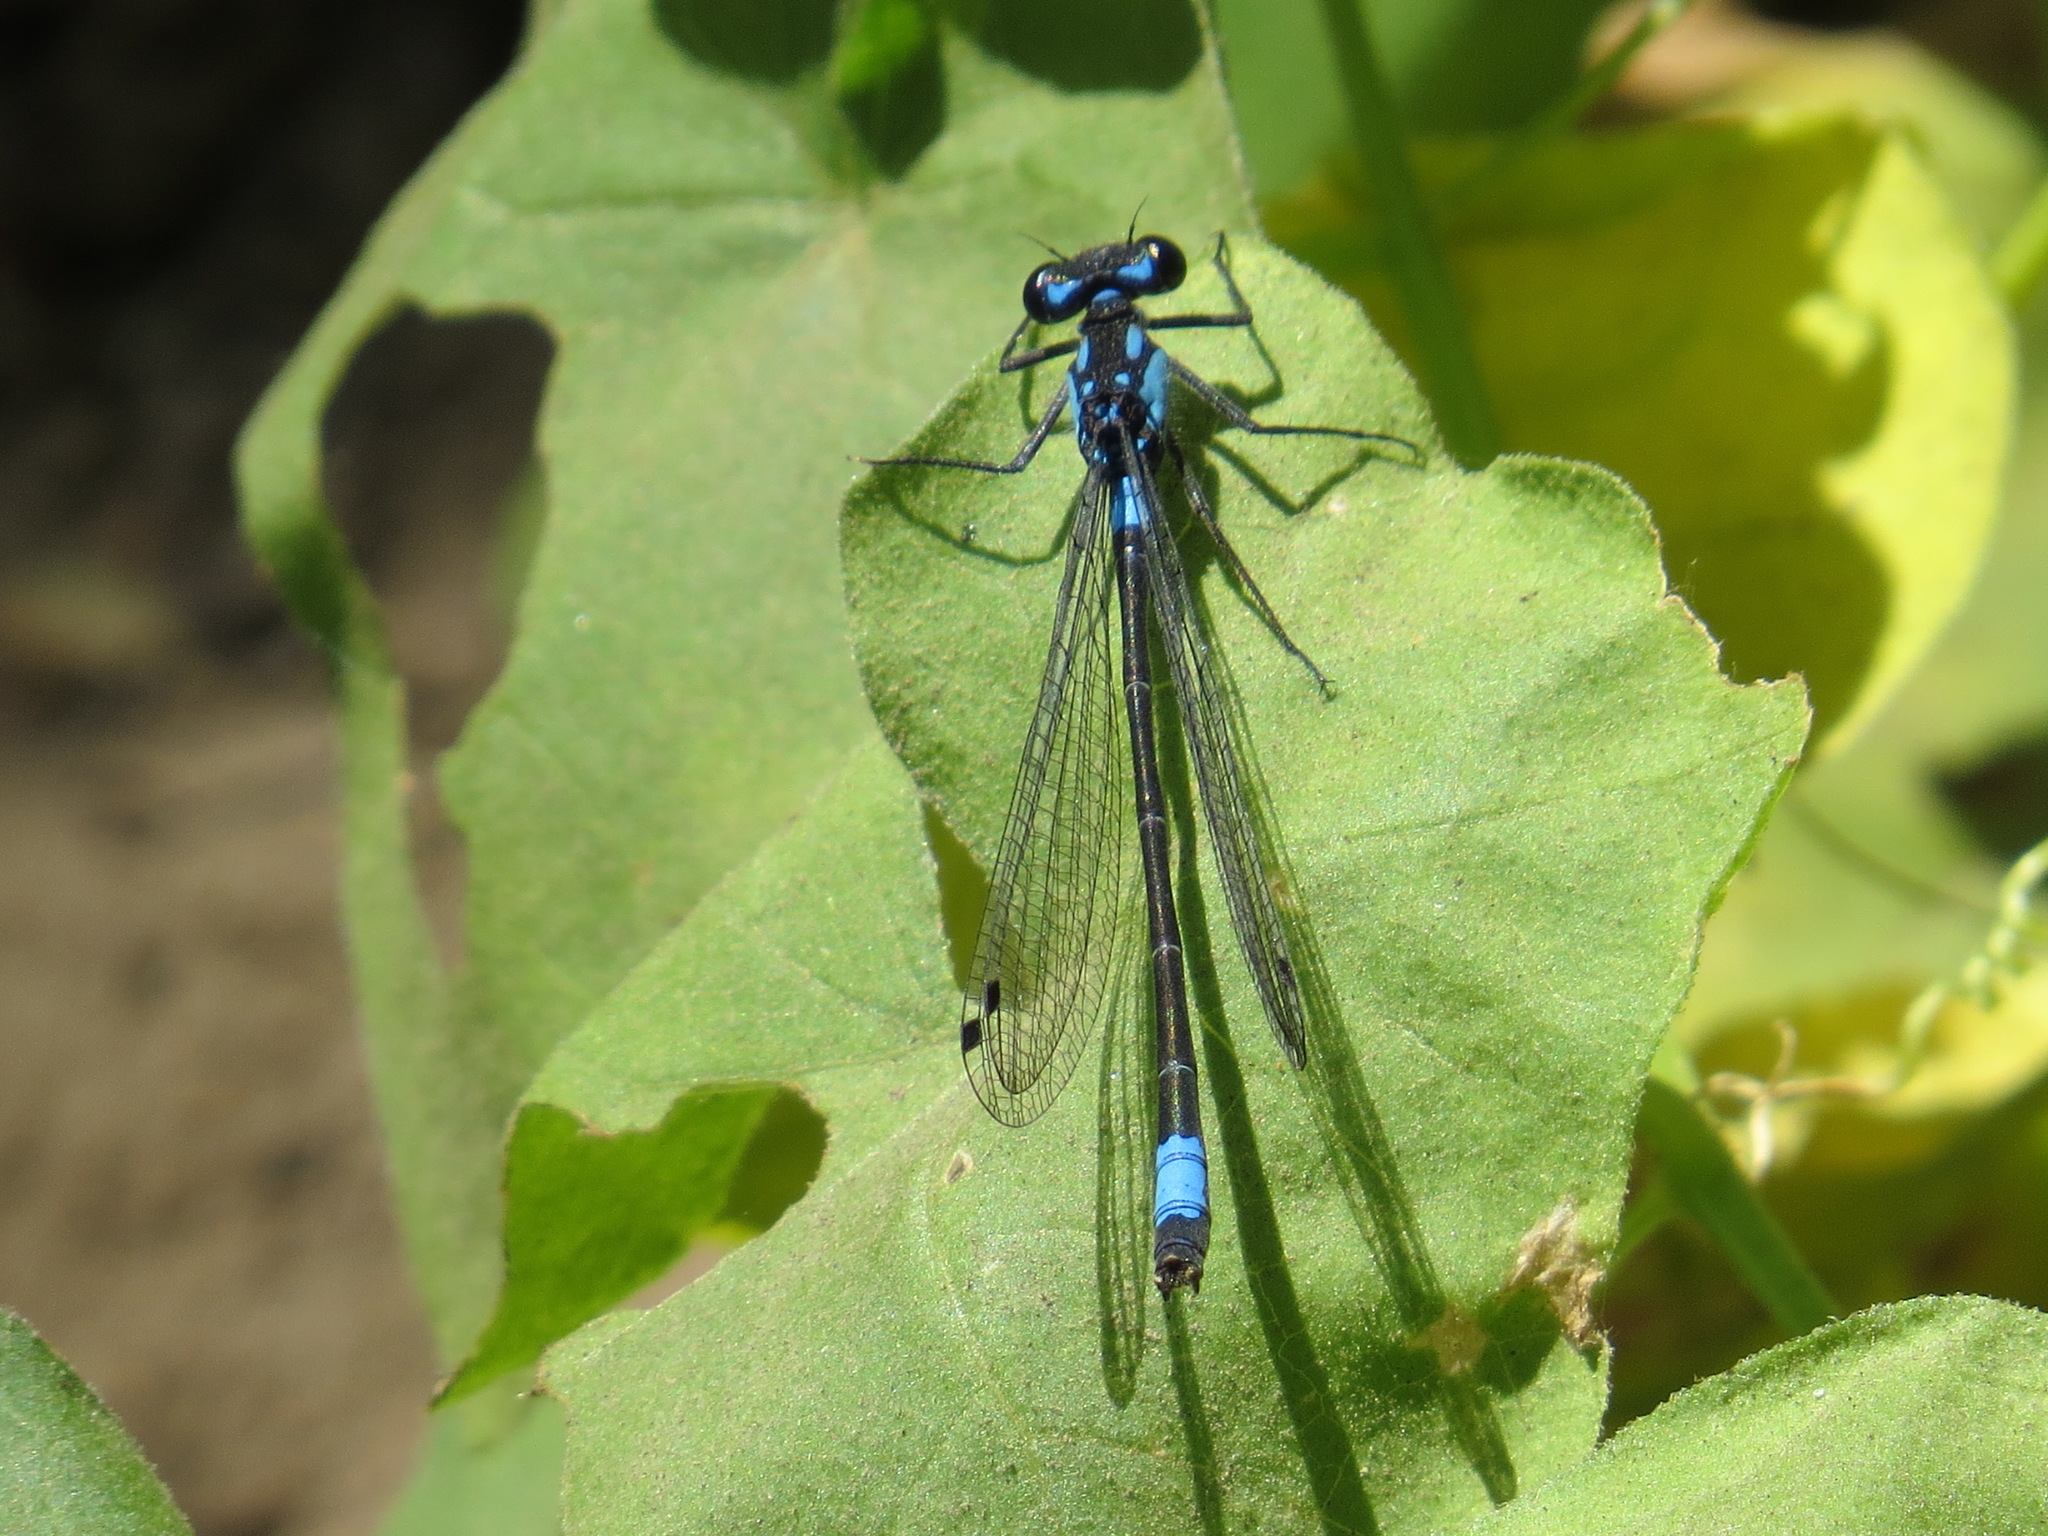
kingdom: Animalia
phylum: Arthropoda
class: Insecta
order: Odonata
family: Coenagrionidae
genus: Zoniagrion
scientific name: Zoniagrion exclamationis
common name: Exclamation damsel
